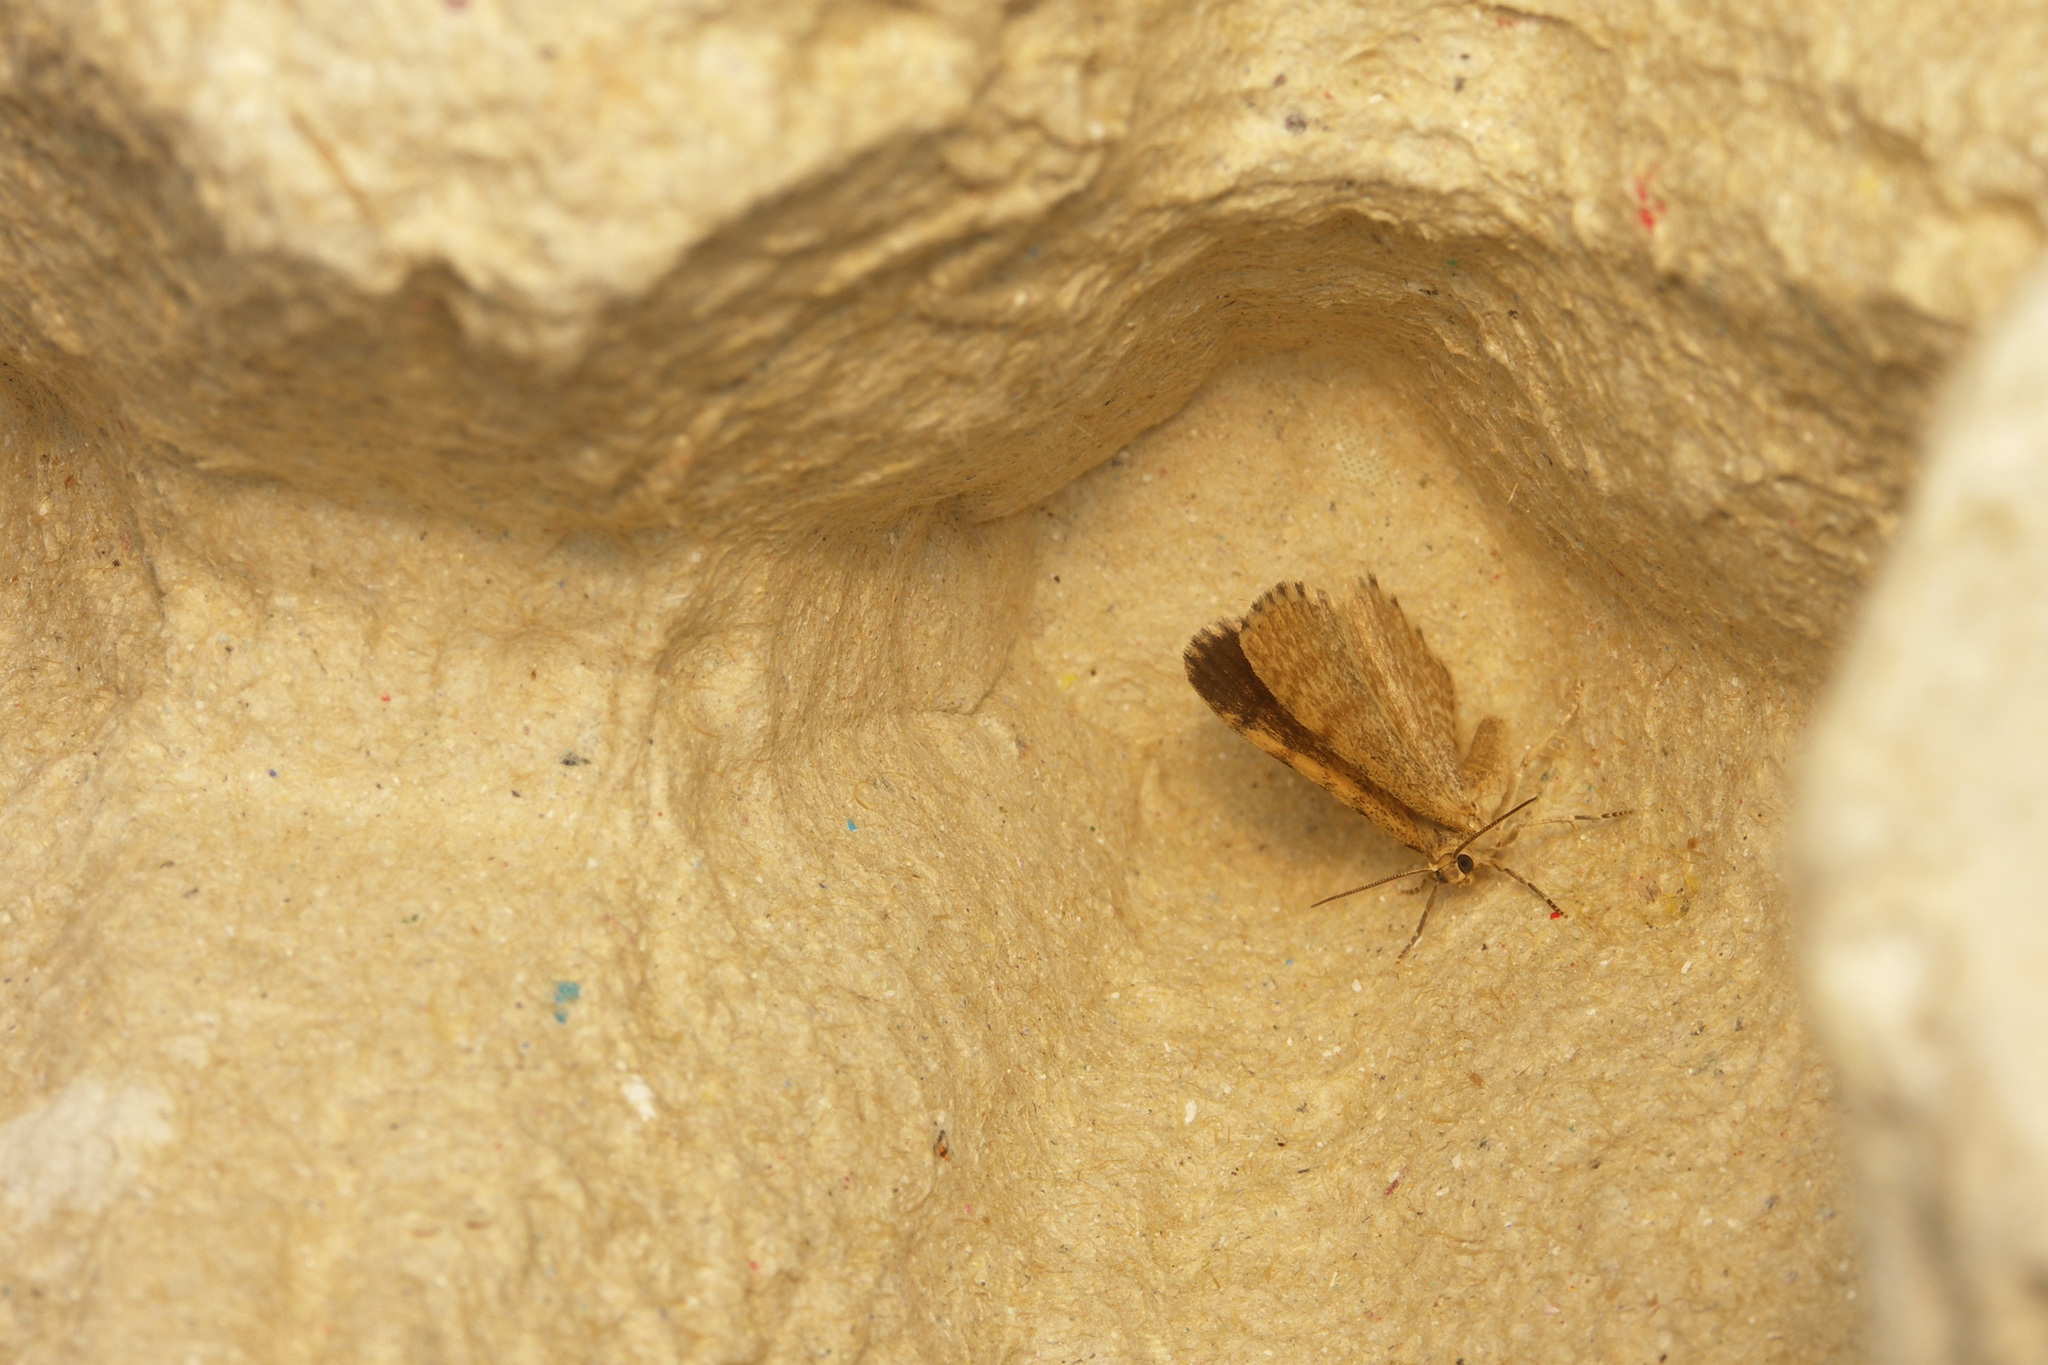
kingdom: Animalia
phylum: Arthropoda
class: Insecta
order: Lepidoptera
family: Geometridae
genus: Euchoeca
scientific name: Euchoeca nebulata
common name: Dingy shell
